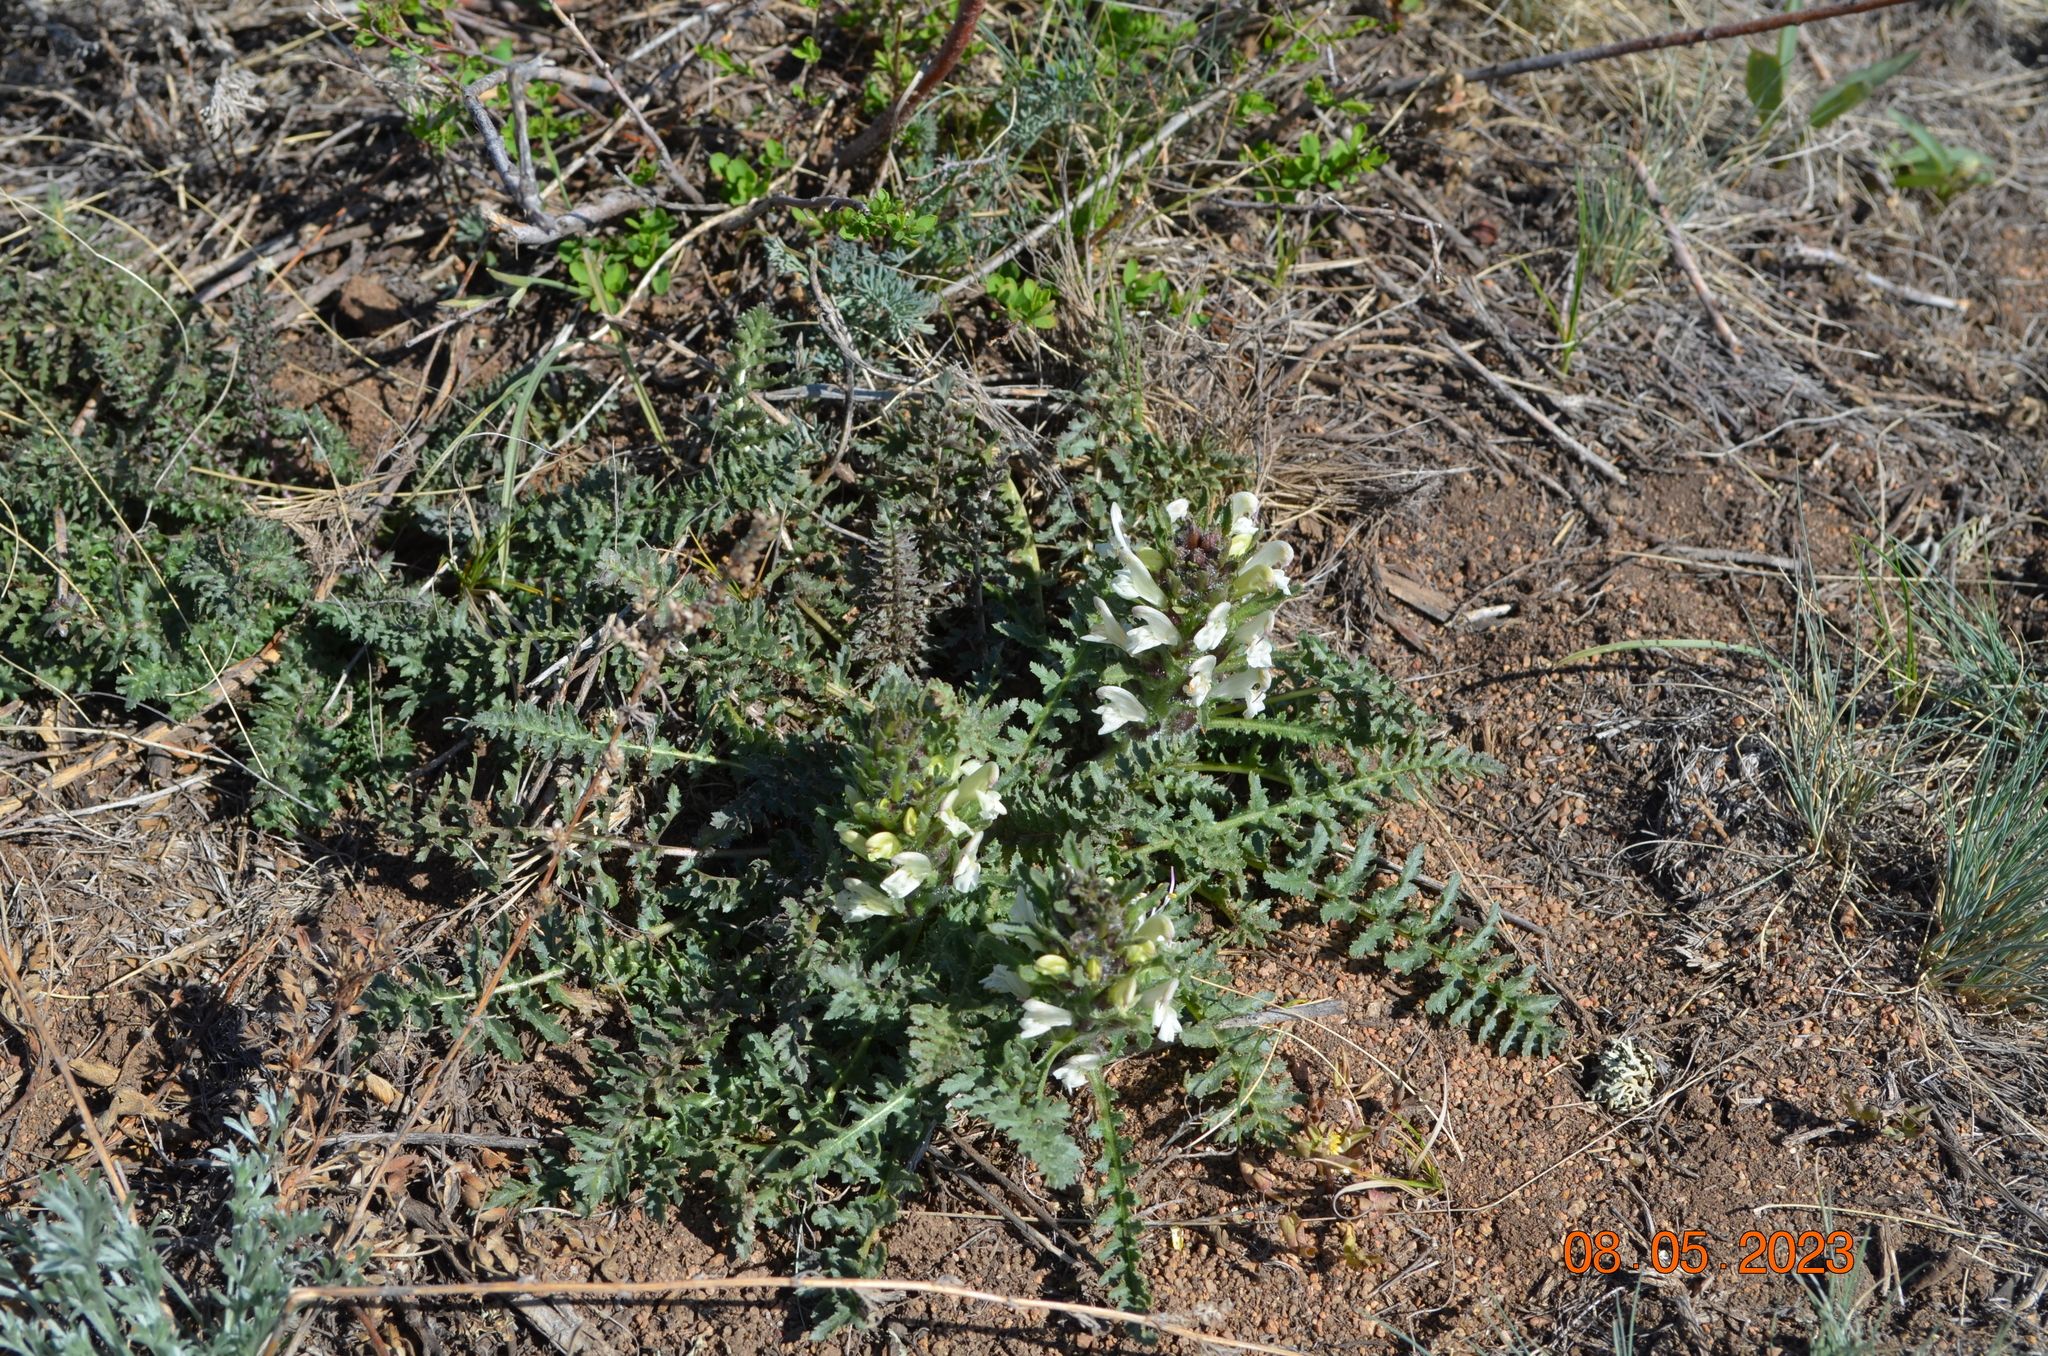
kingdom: Plantae
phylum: Tracheophyta
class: Magnoliopsida
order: Lamiales
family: Orobanchaceae
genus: Pedicularis
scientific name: Pedicularis physocalyx
